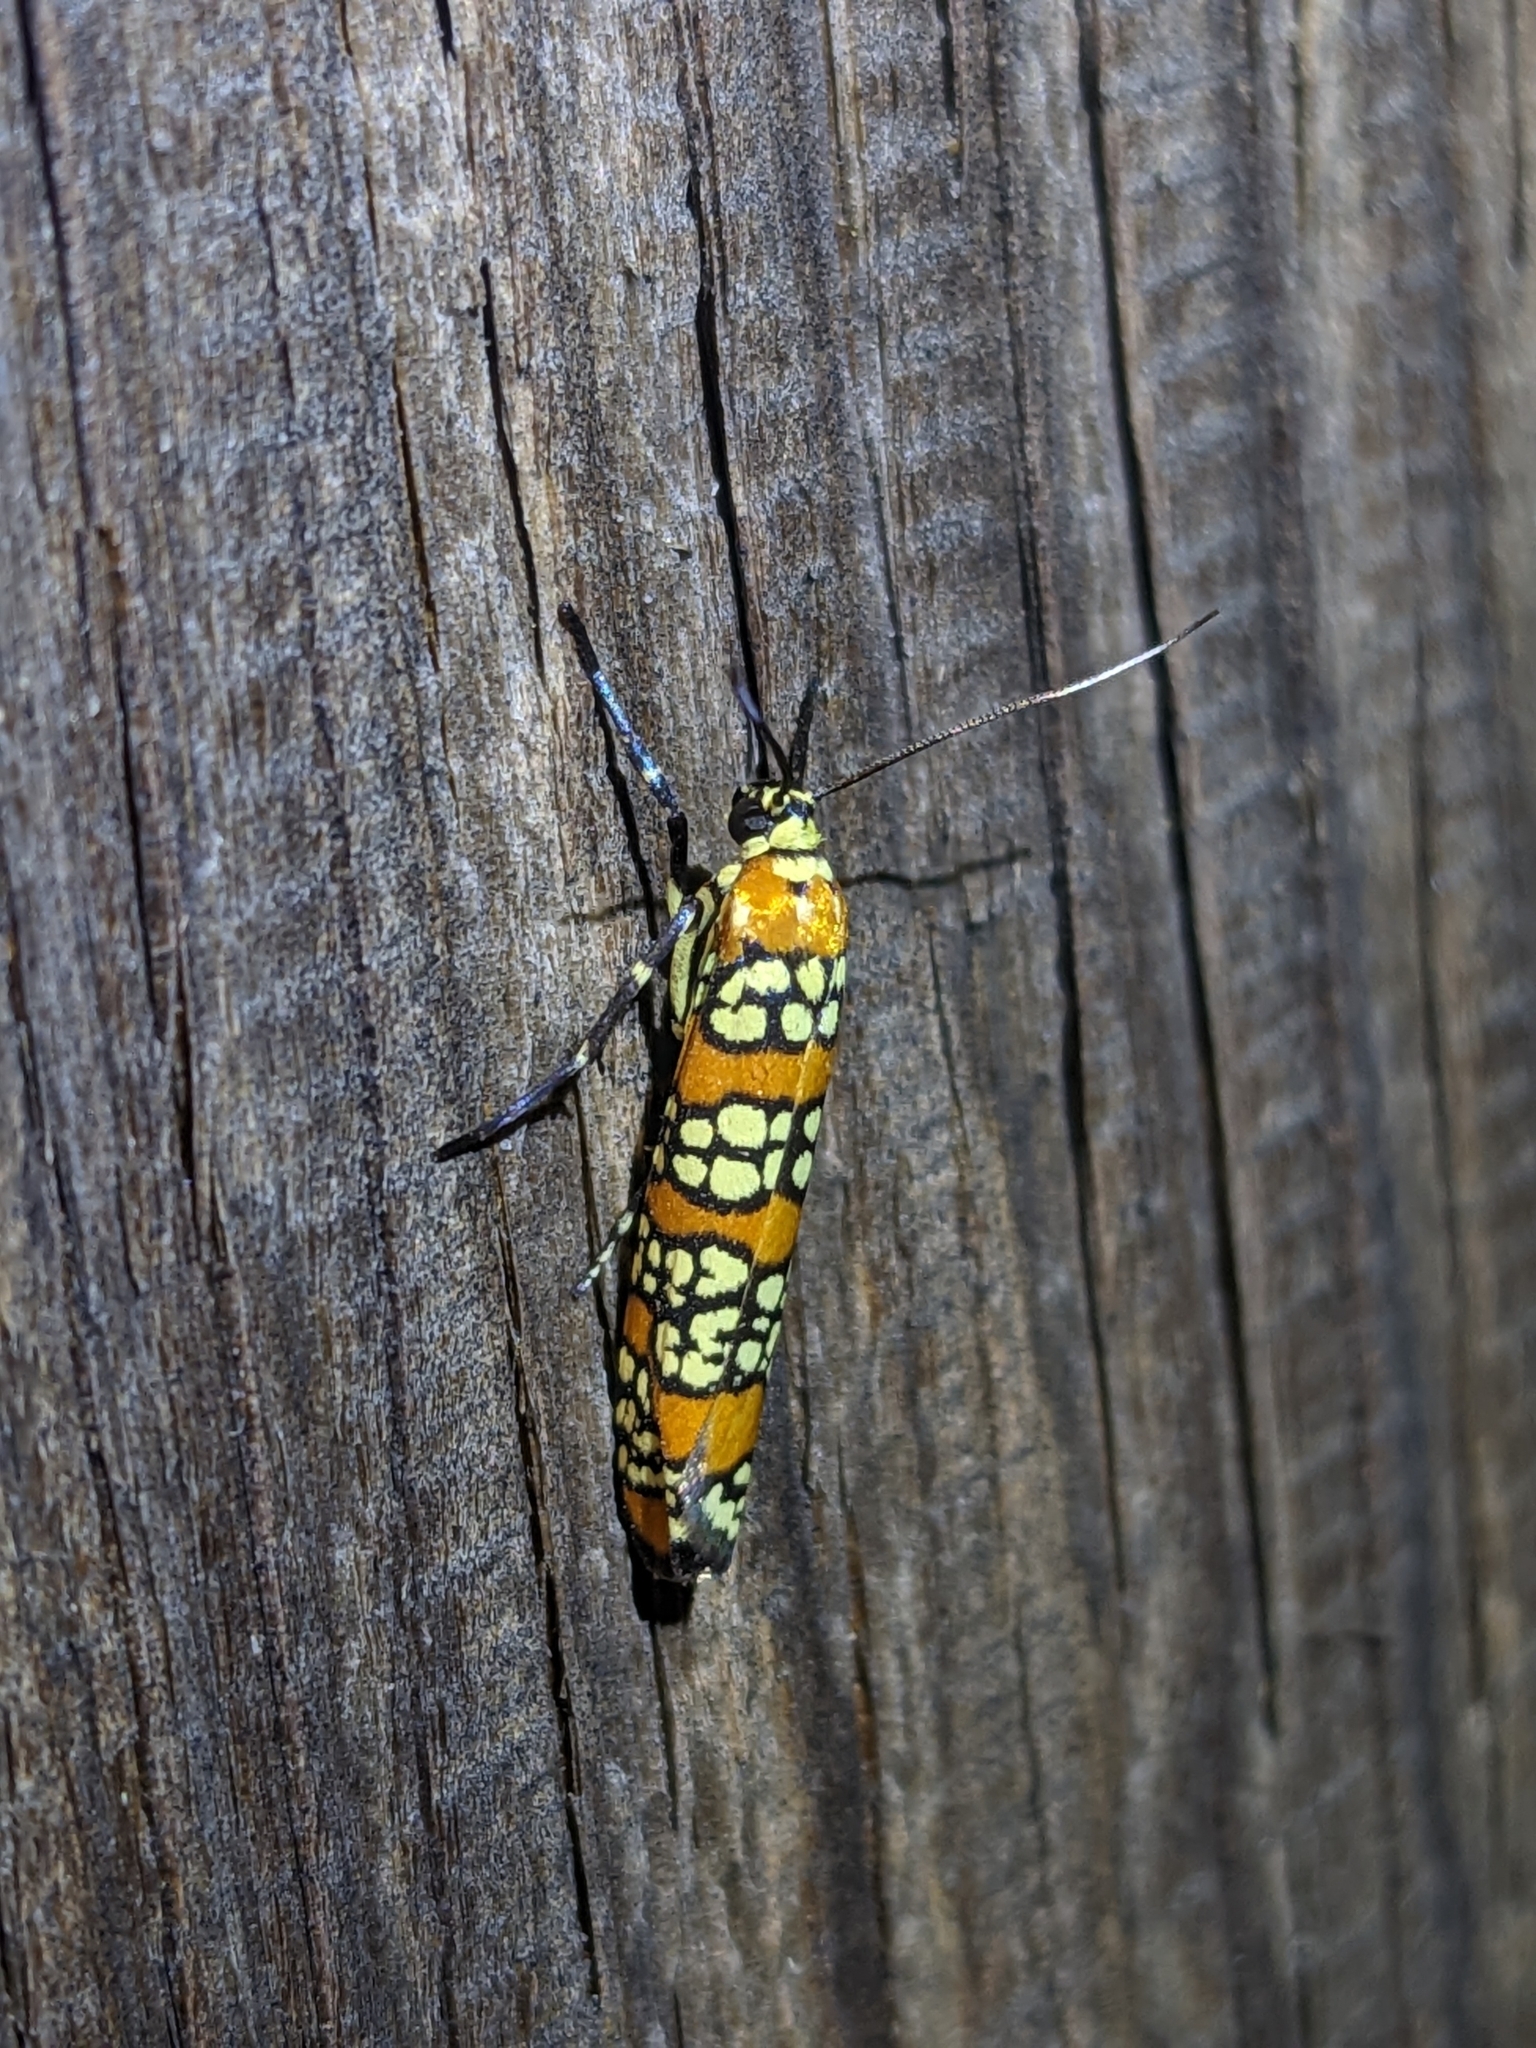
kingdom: Animalia
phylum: Arthropoda
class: Insecta
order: Lepidoptera
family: Attevidae
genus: Atteva
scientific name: Atteva punctella
